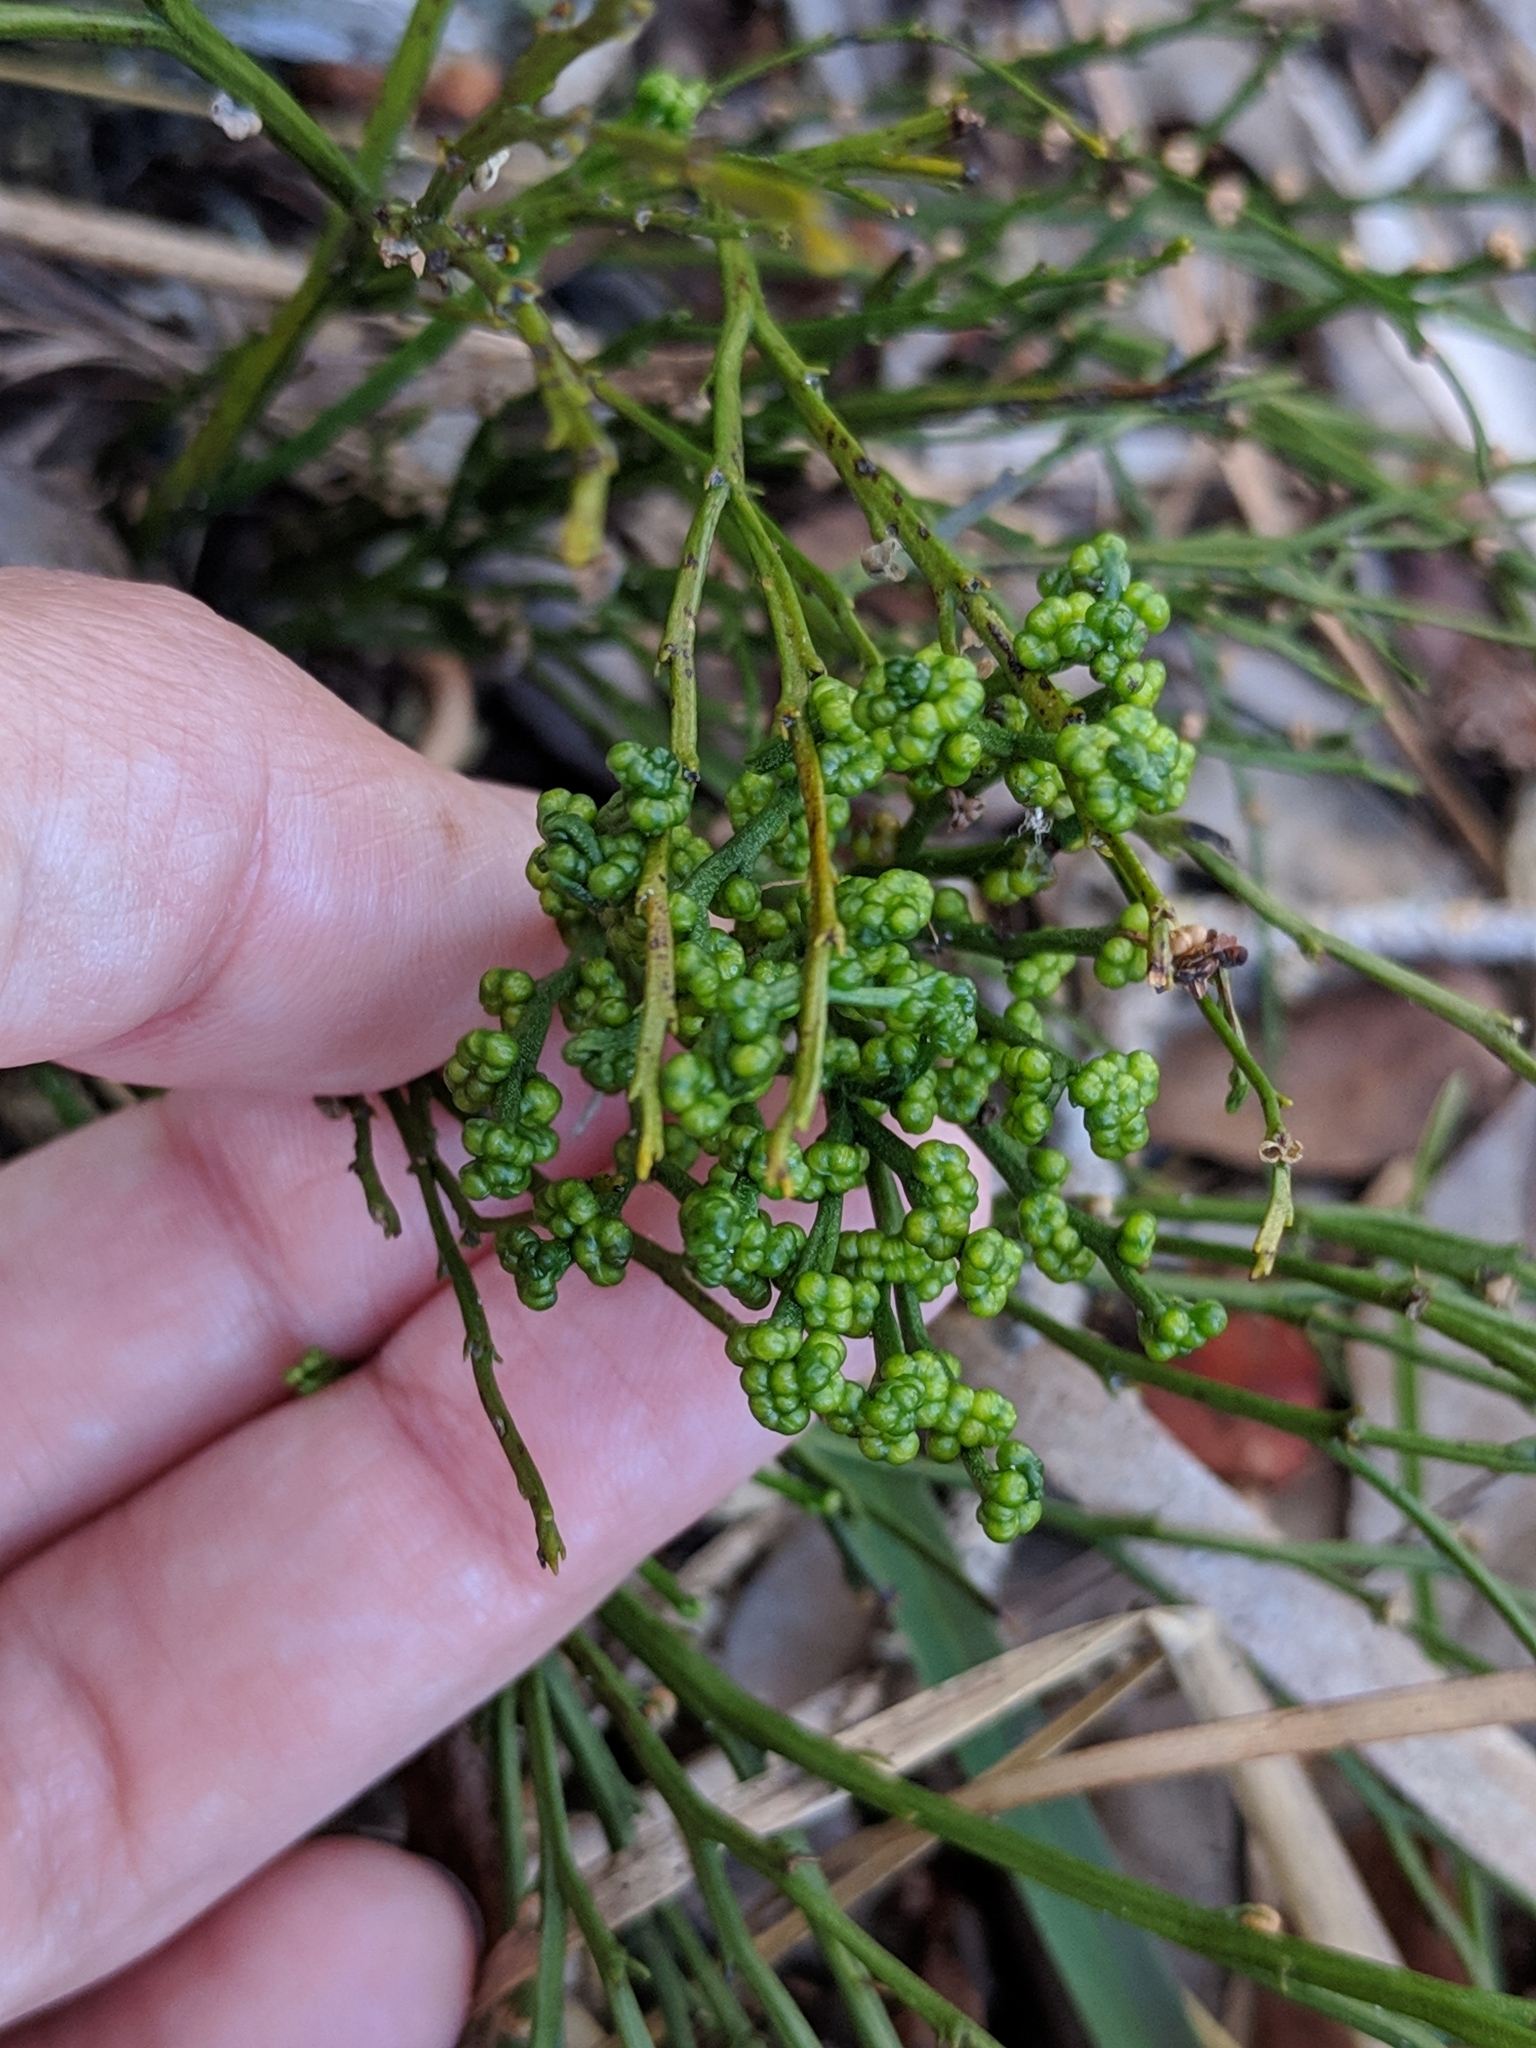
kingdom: Plantae
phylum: Tracheophyta
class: Polypodiopsida
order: Psilotales
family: Psilotaceae
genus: Psilotum
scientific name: Psilotum nudum
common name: Skeleton fork fern
